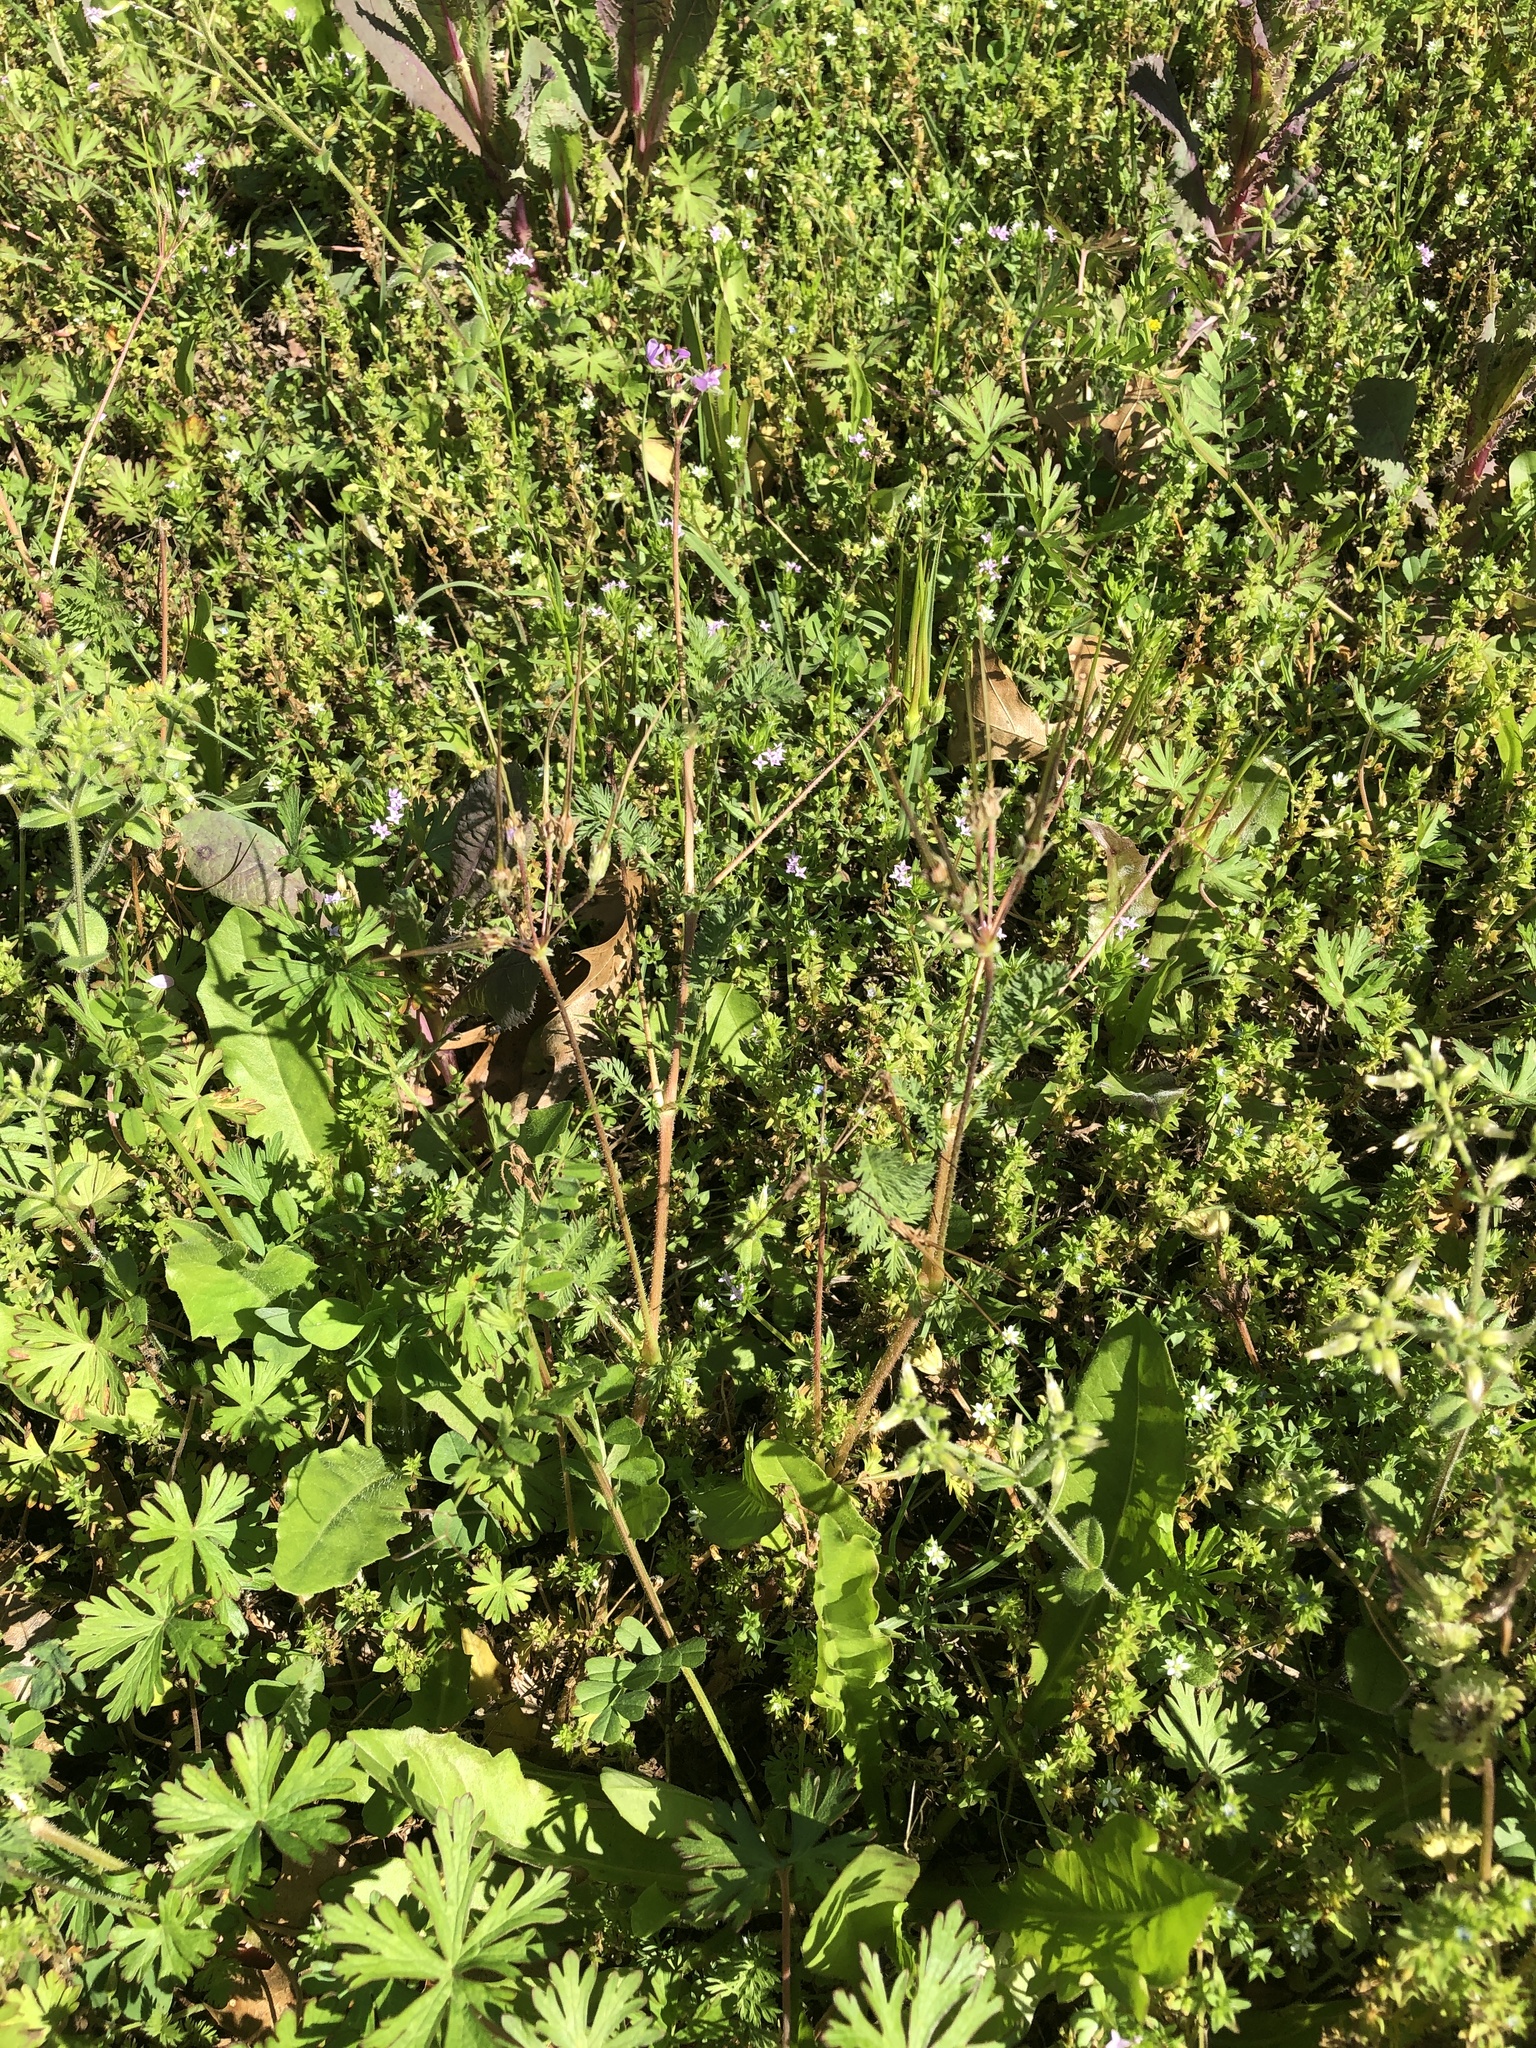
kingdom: Plantae
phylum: Tracheophyta
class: Magnoliopsida
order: Geraniales
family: Geraniaceae
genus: Erodium
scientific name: Erodium cicutarium
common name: Common stork's-bill
